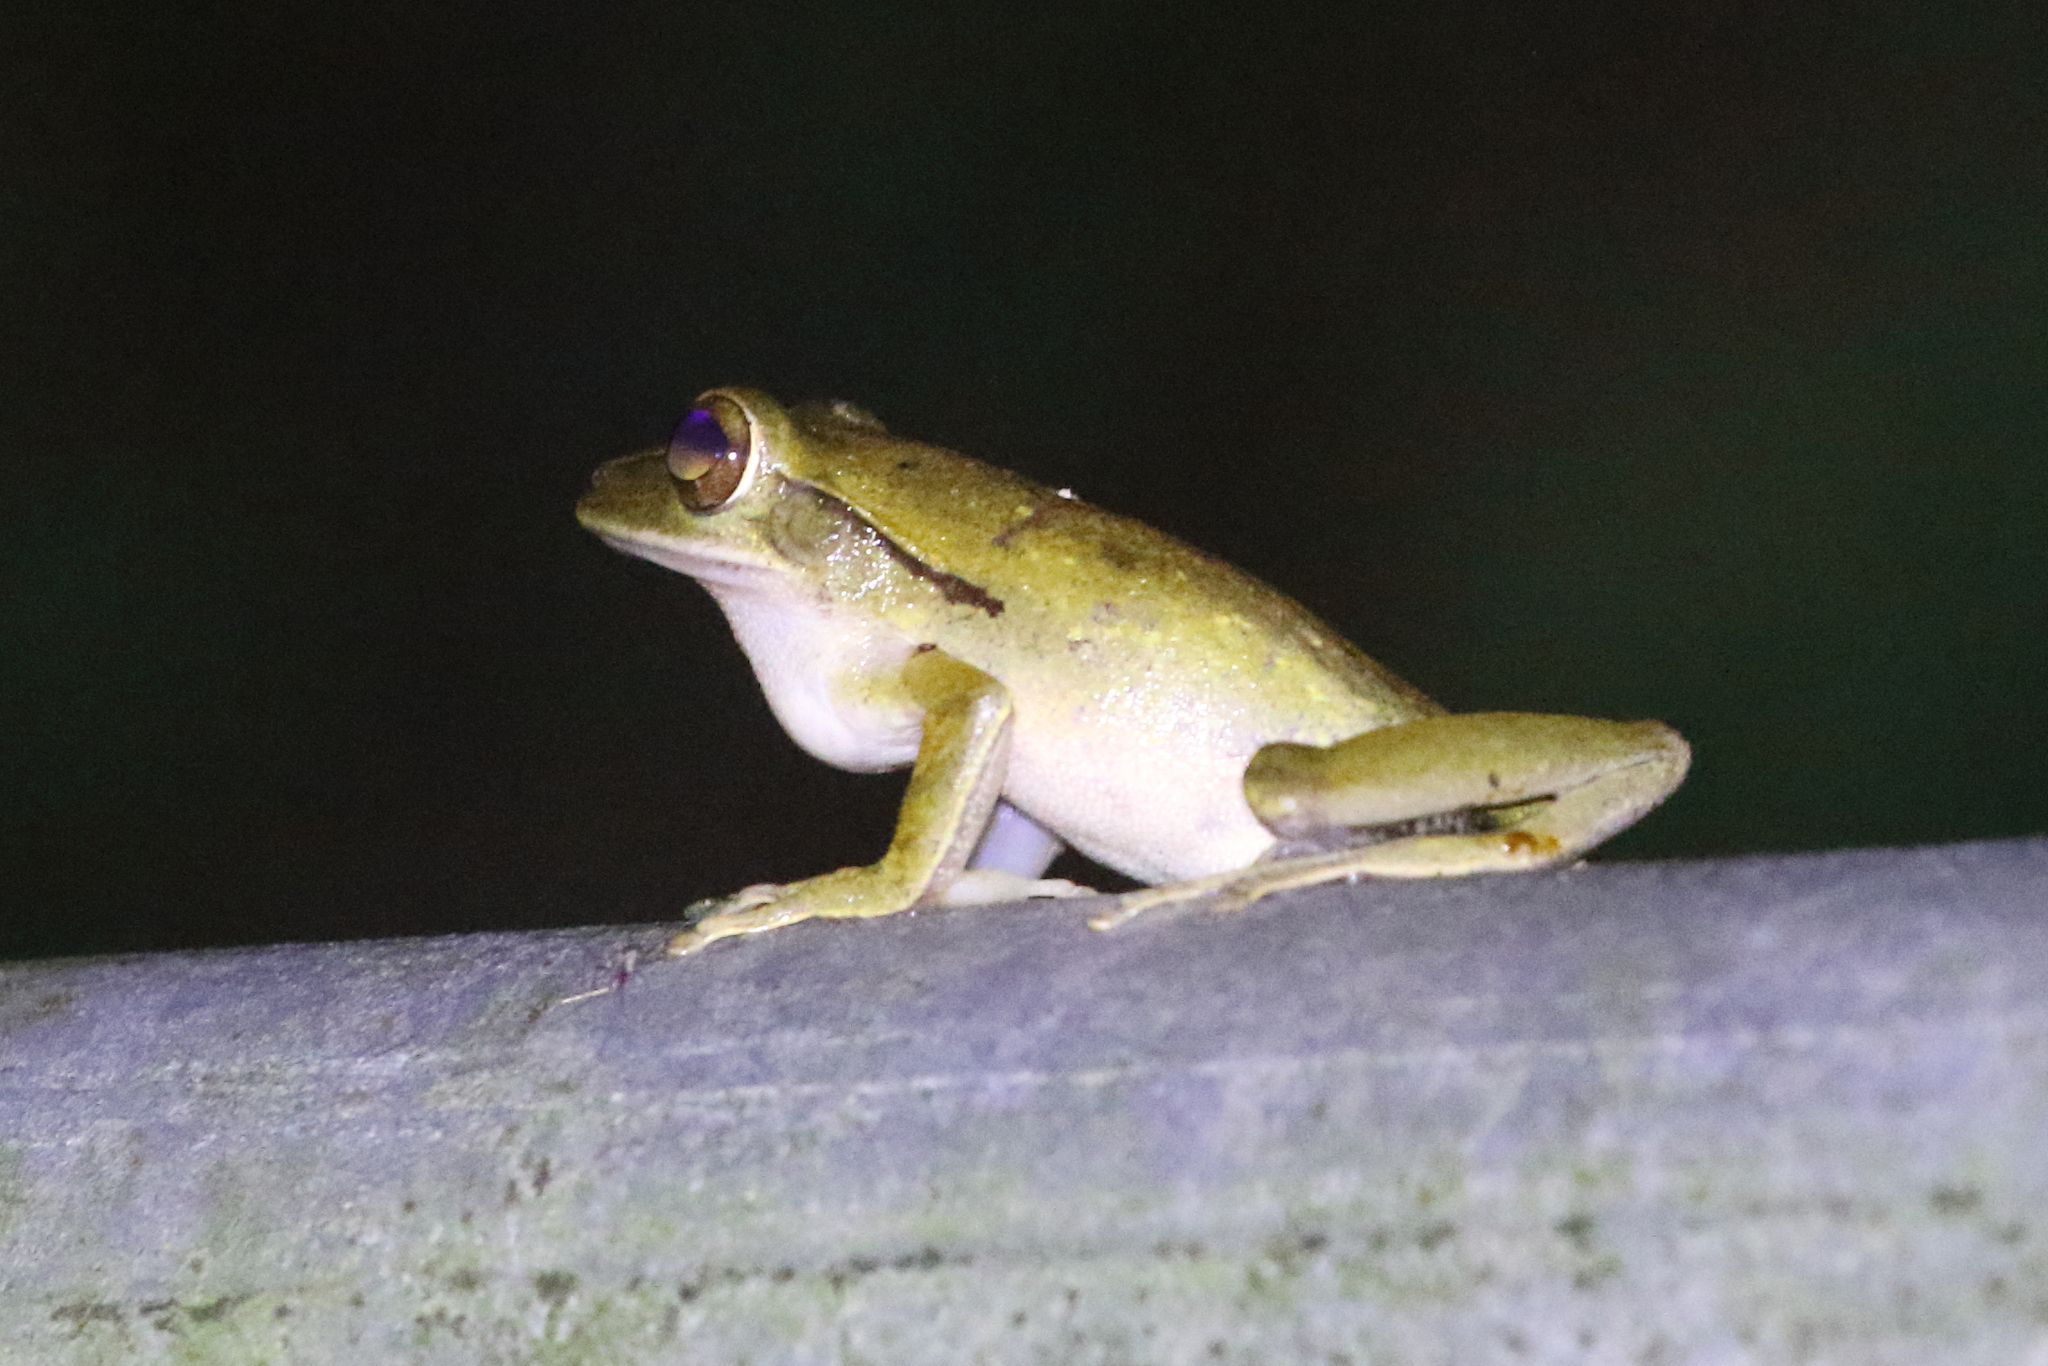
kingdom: Animalia
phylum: Chordata
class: Amphibia
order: Anura
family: Rhacophoridae
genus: Polypedates
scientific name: Polypedates leucomystax
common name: Common tree frog/four-lined tree frog
